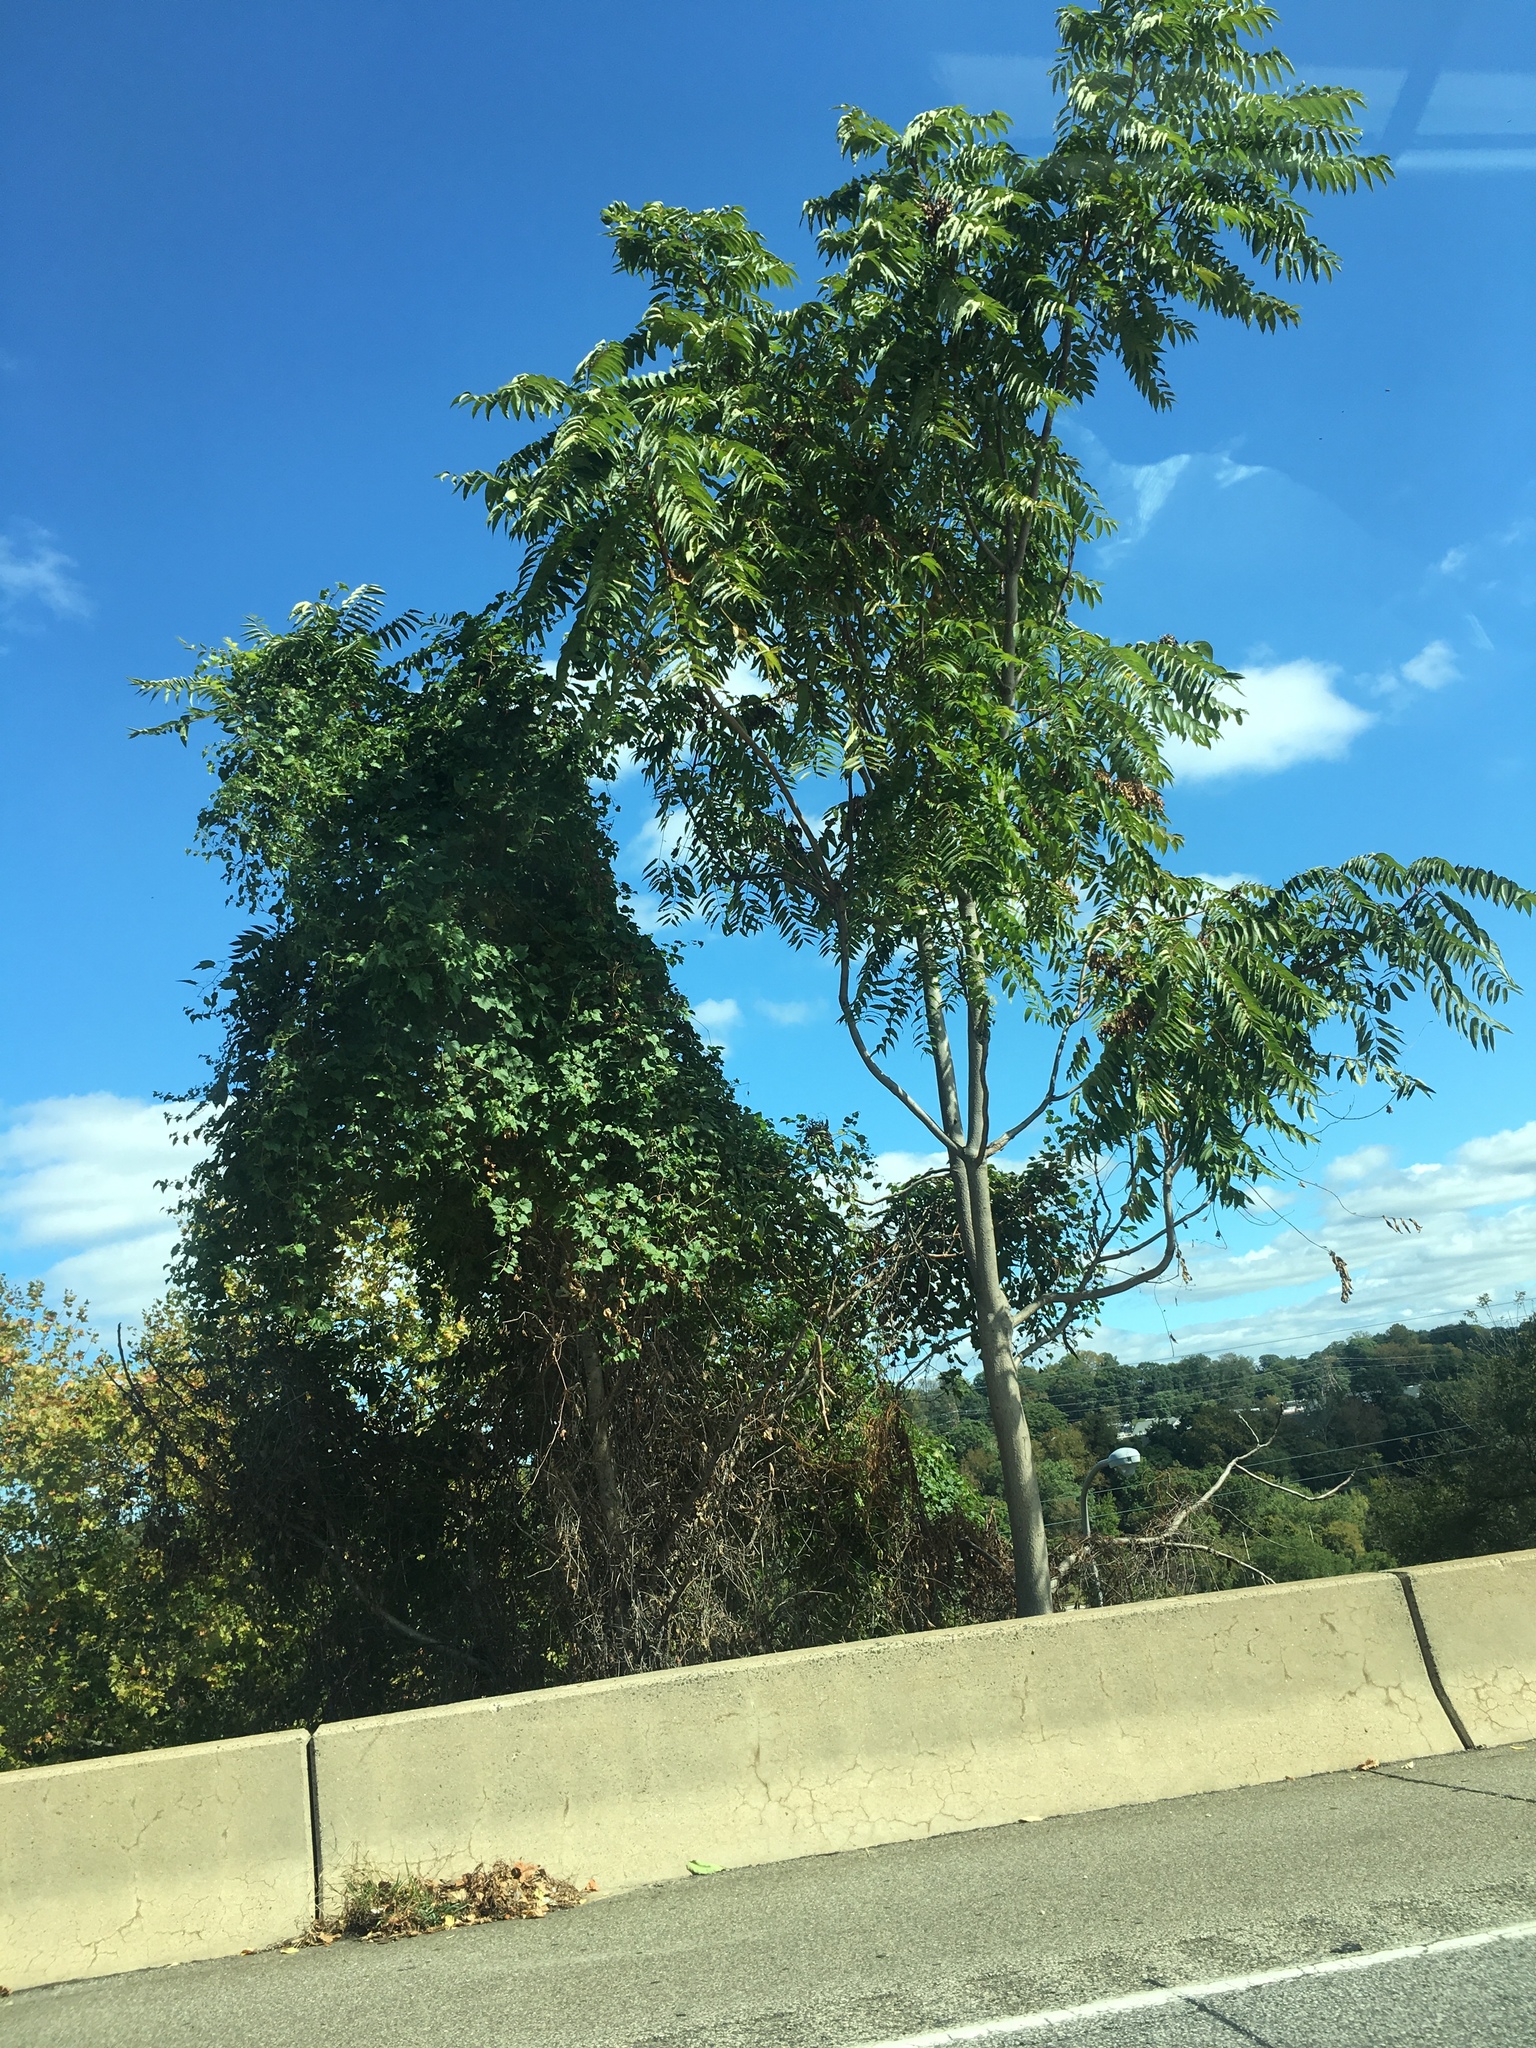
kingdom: Plantae
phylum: Tracheophyta
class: Magnoliopsida
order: Sapindales
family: Simaroubaceae
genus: Ailanthus
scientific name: Ailanthus altissima
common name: Tree-of-heaven
